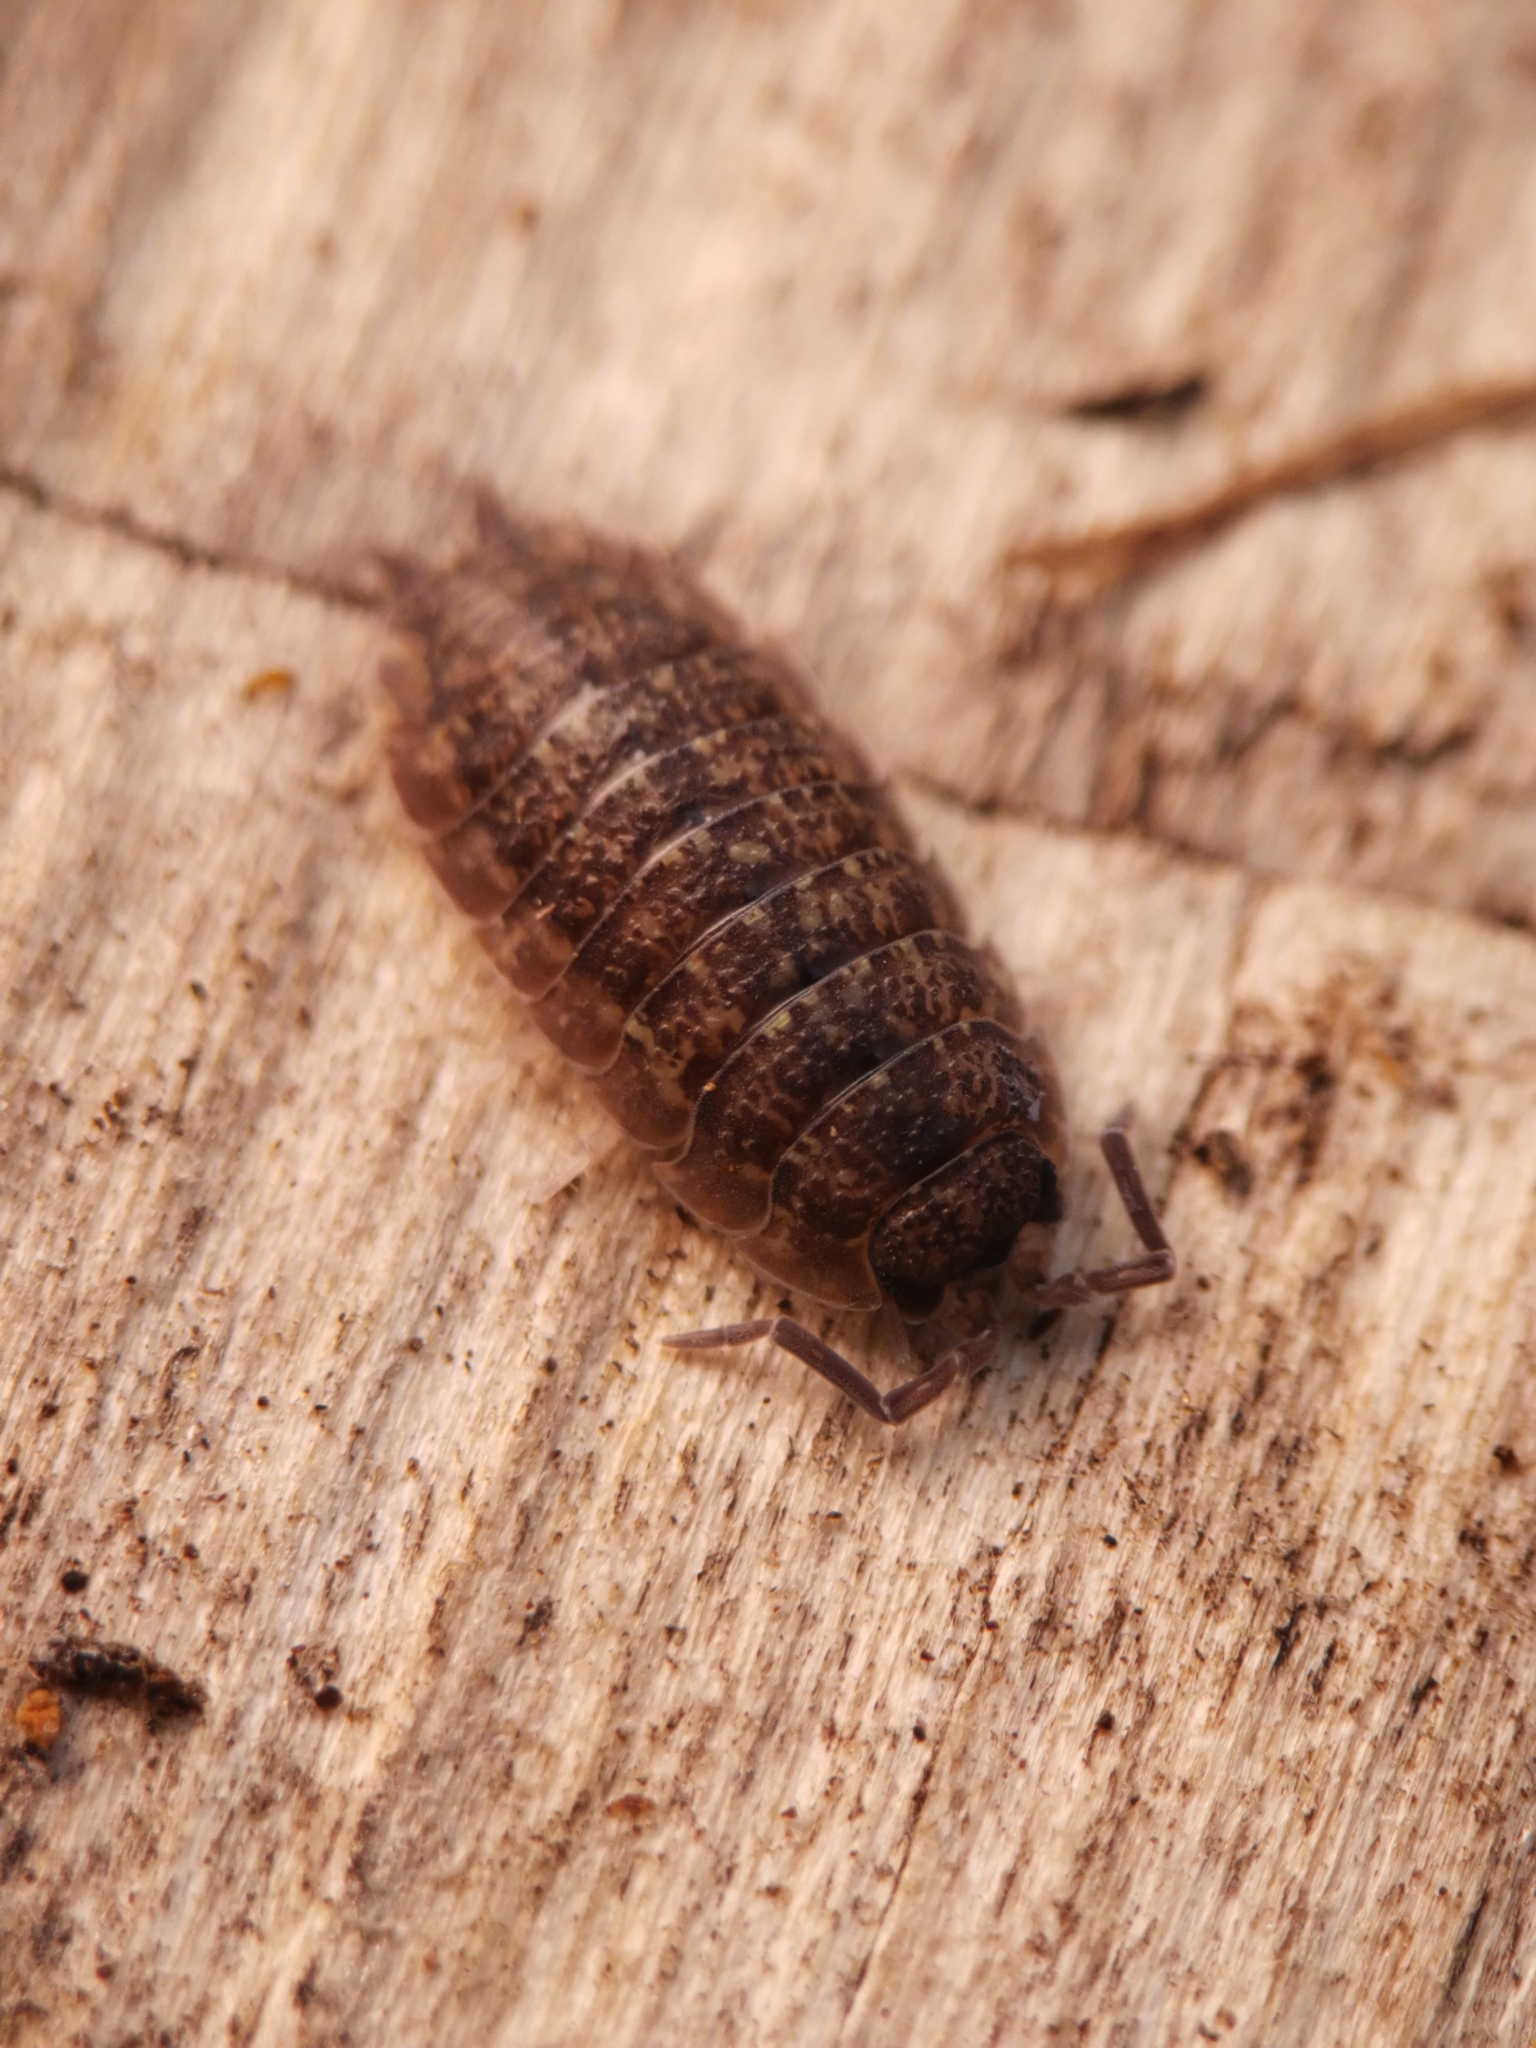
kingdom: Animalia
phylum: Arthropoda
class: Malacostraca
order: Isopoda
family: Porcellionidae
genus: Porcellio
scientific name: Porcellio scaber
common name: Common rough woodlouse
